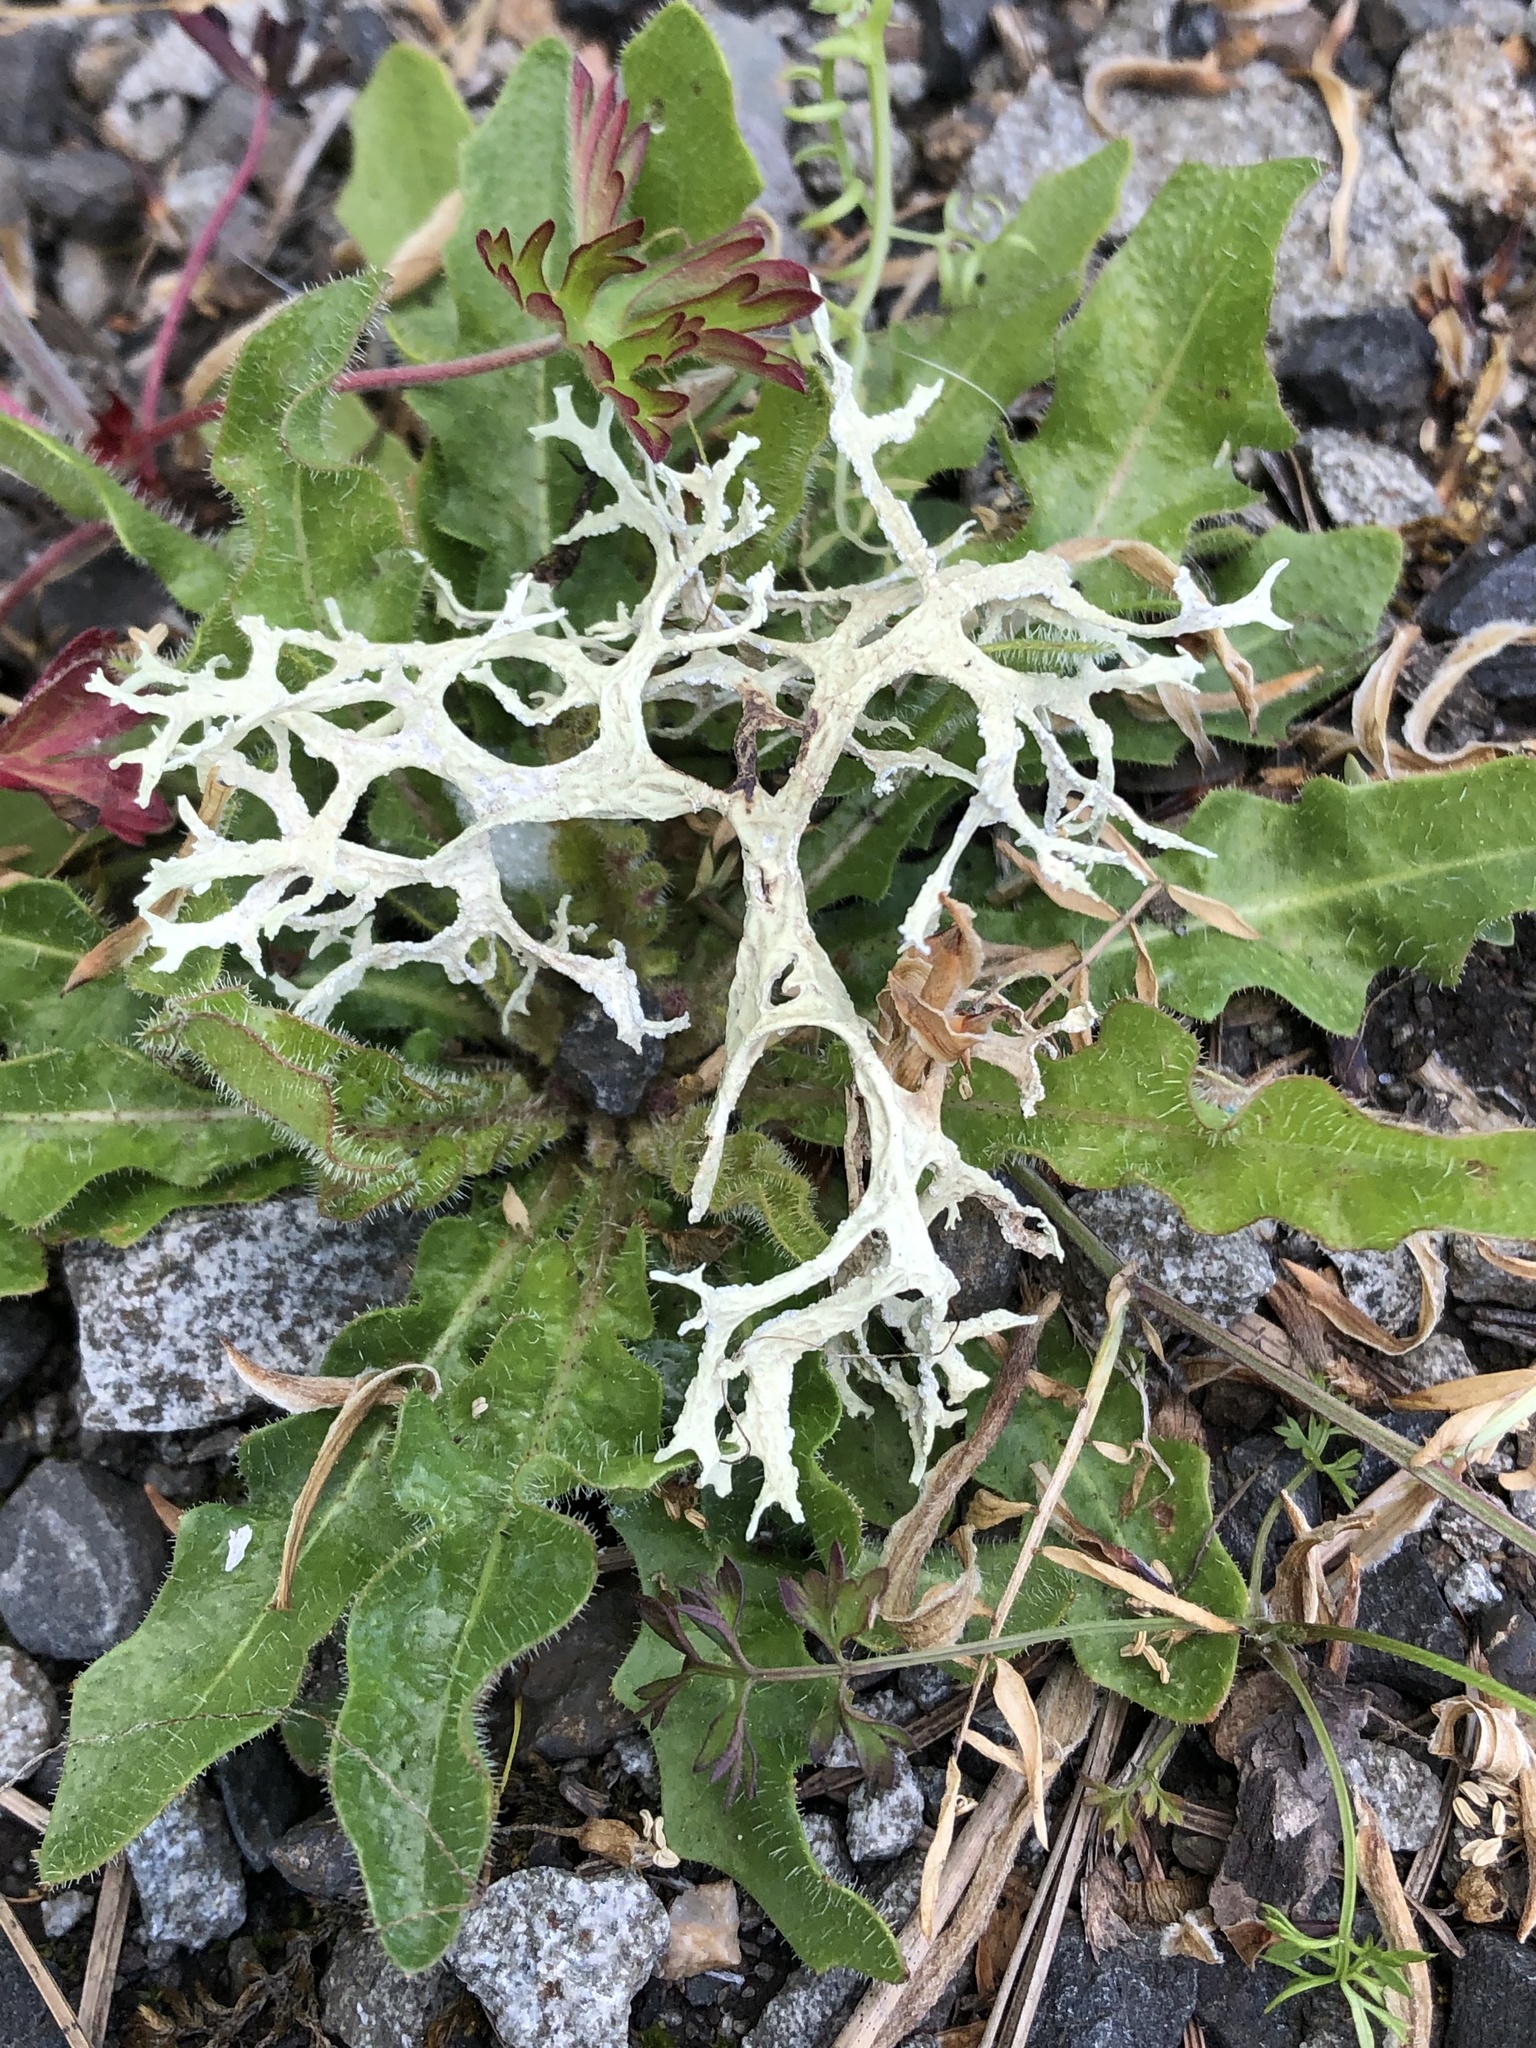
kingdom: Fungi
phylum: Ascomycota
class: Lecanoromycetes
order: Lecanorales
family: Parmeliaceae
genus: Evernia
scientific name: Evernia prunastri
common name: Oak moss
